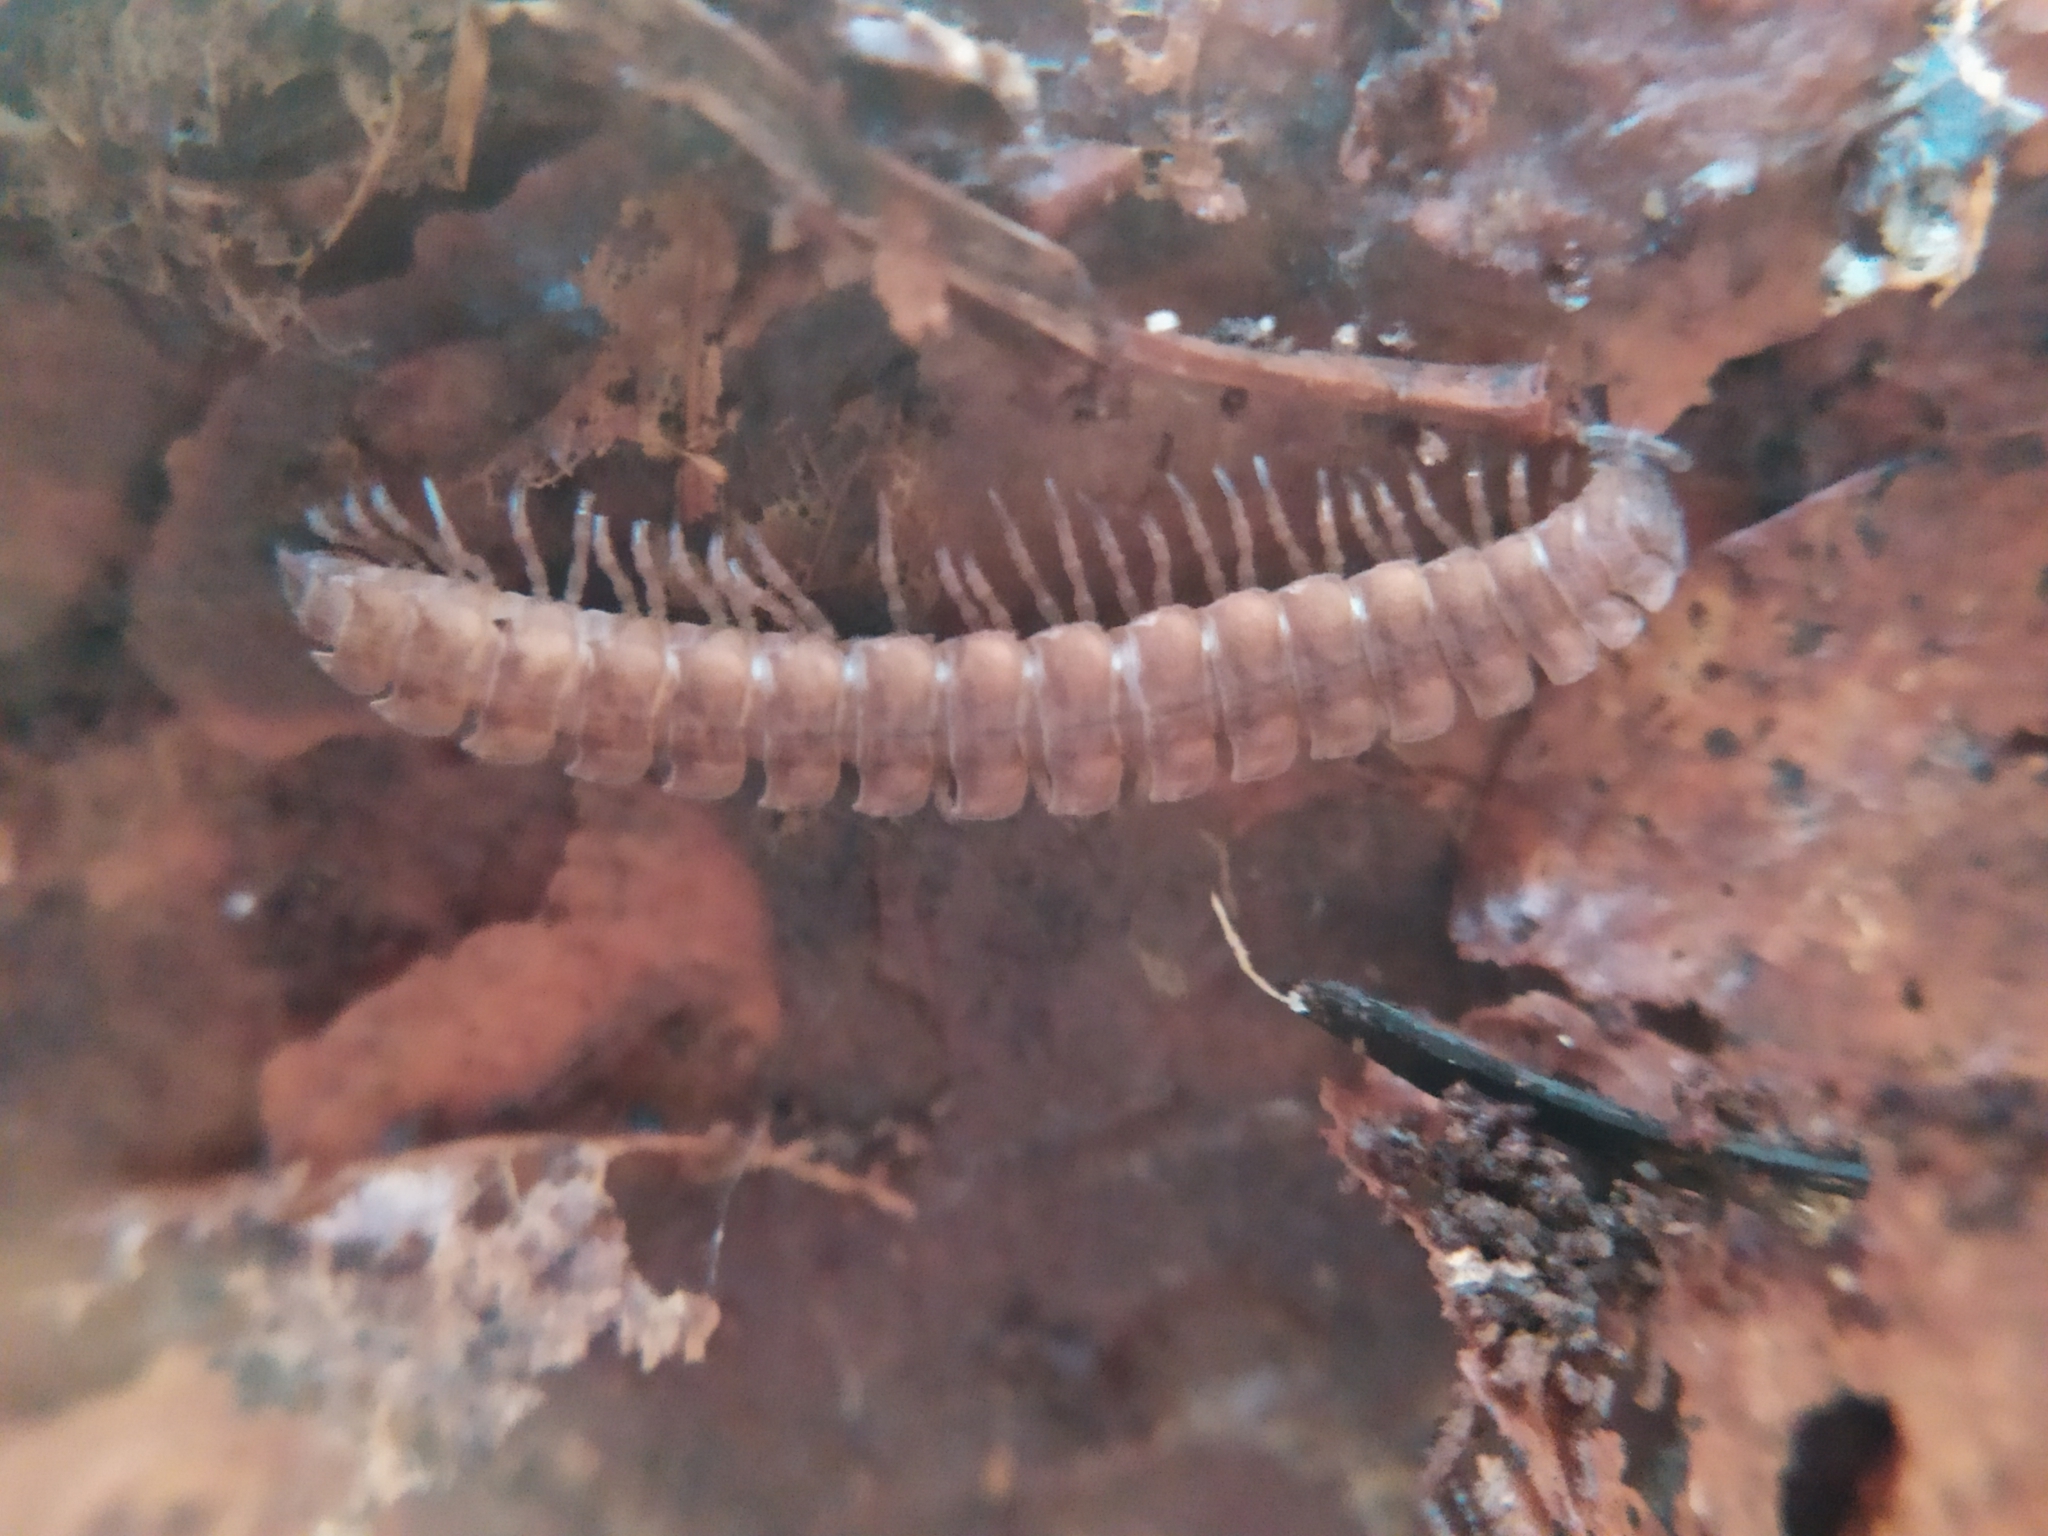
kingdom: Animalia
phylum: Arthropoda
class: Diplopoda
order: Polydesmida
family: Polydesmidae
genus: Polydesmus
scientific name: Polydesmus angustus
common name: Flat millipede
